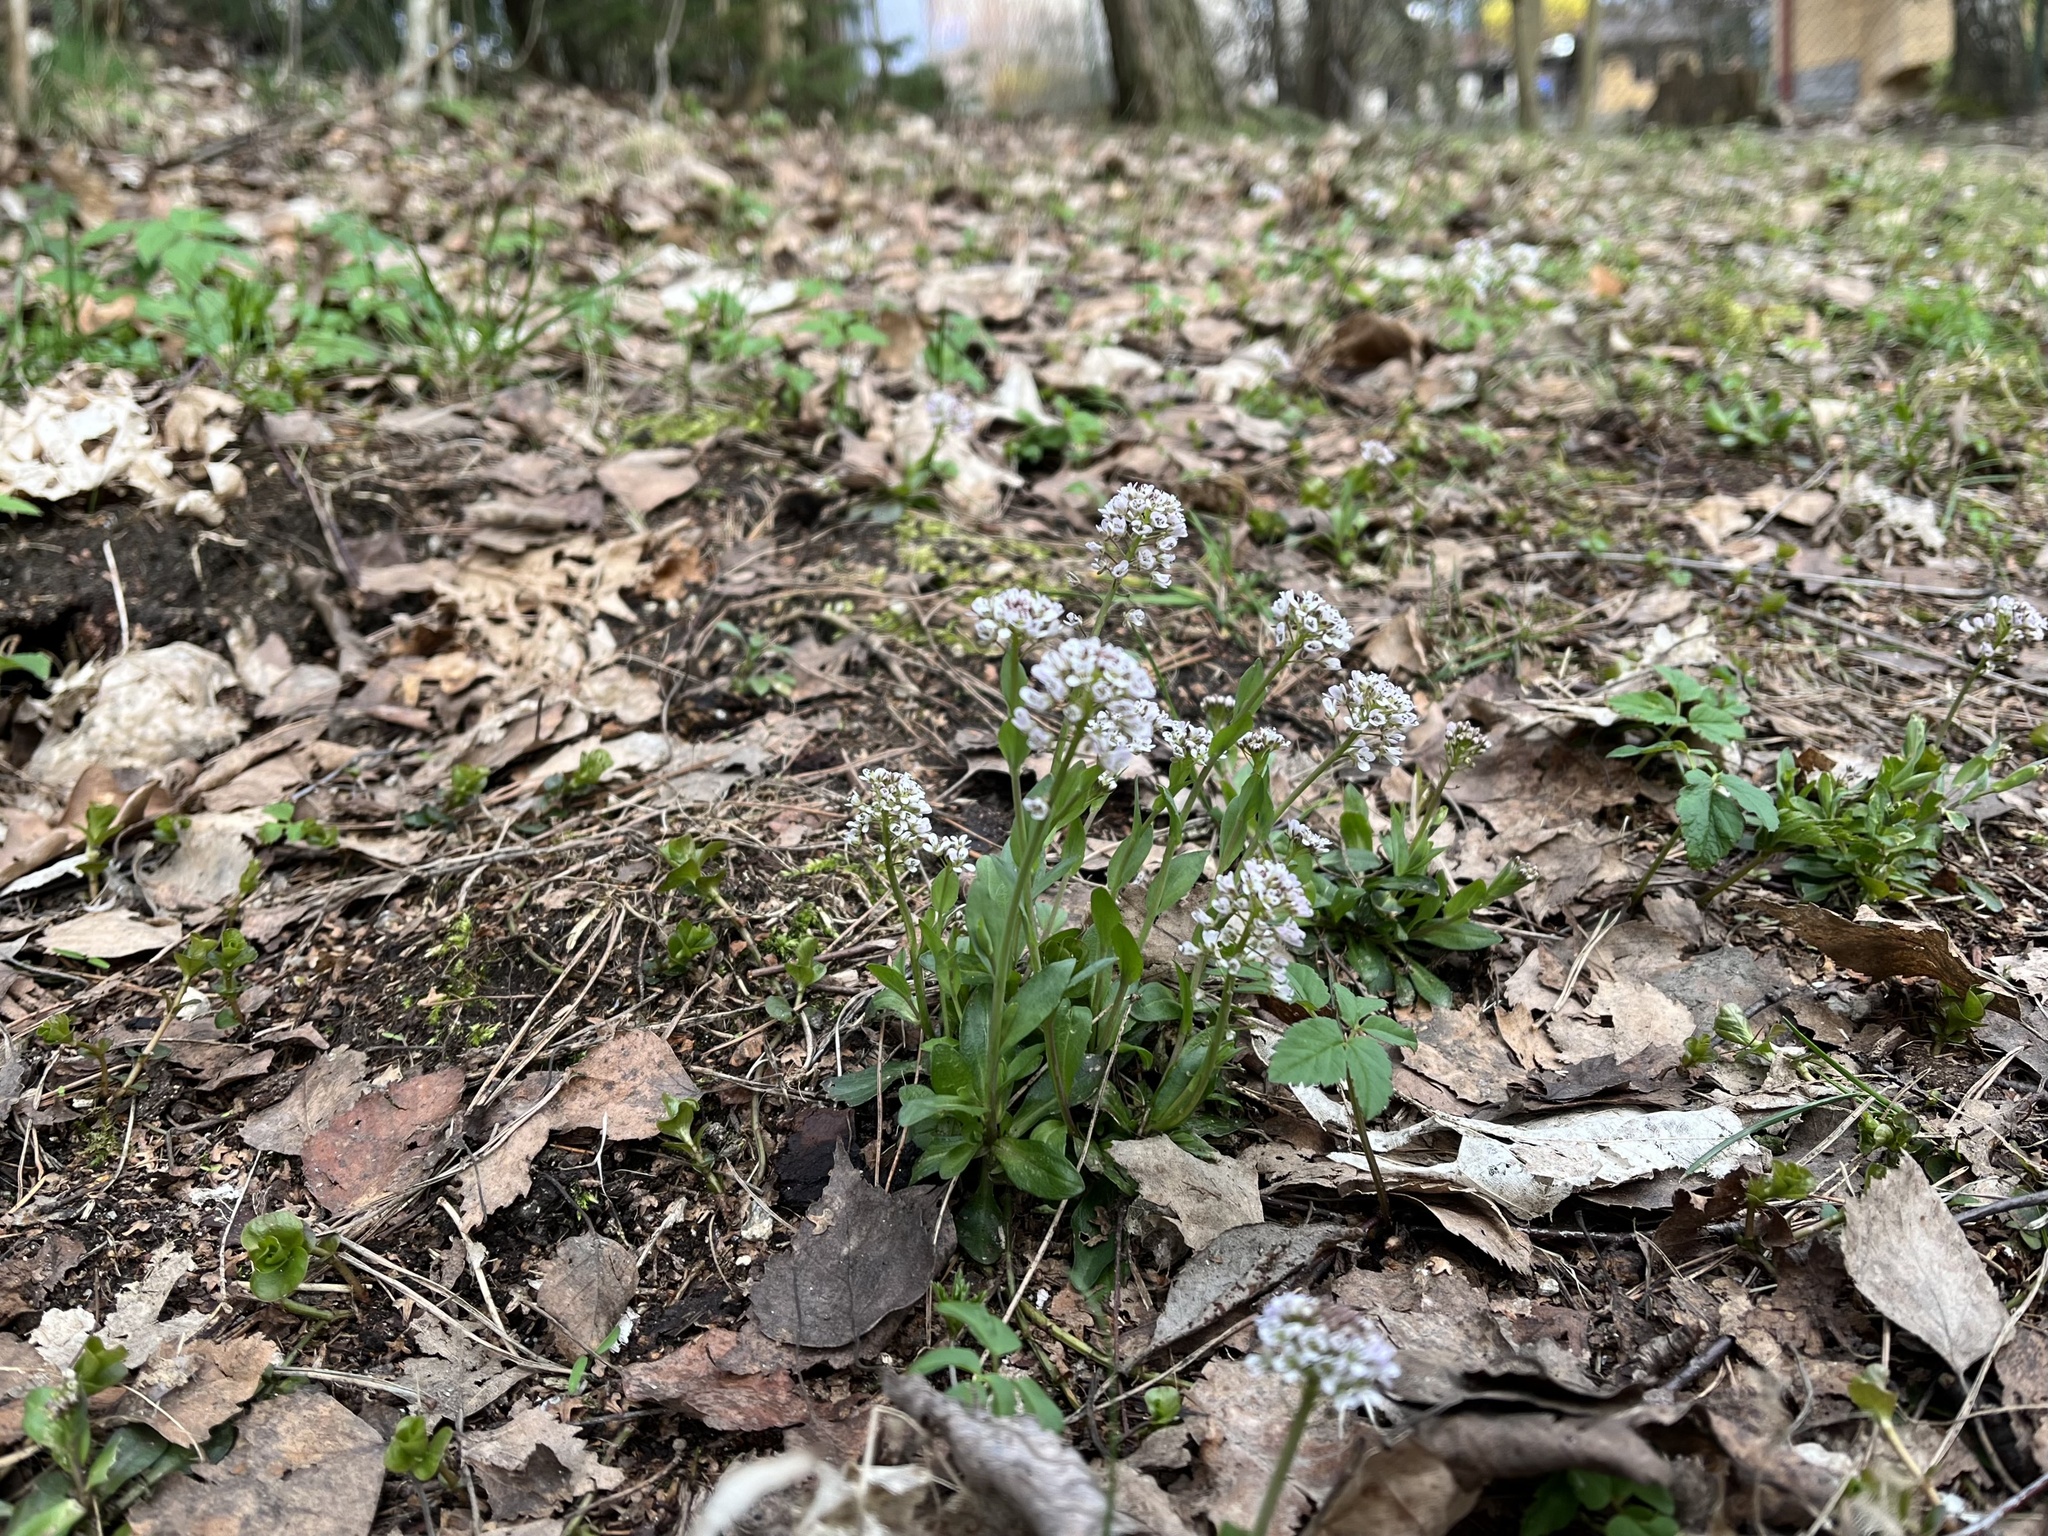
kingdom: Plantae
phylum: Tracheophyta
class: Magnoliopsida
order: Brassicales
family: Brassicaceae
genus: Noccaea
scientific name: Noccaea caerulescens
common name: Alpine pennycress
